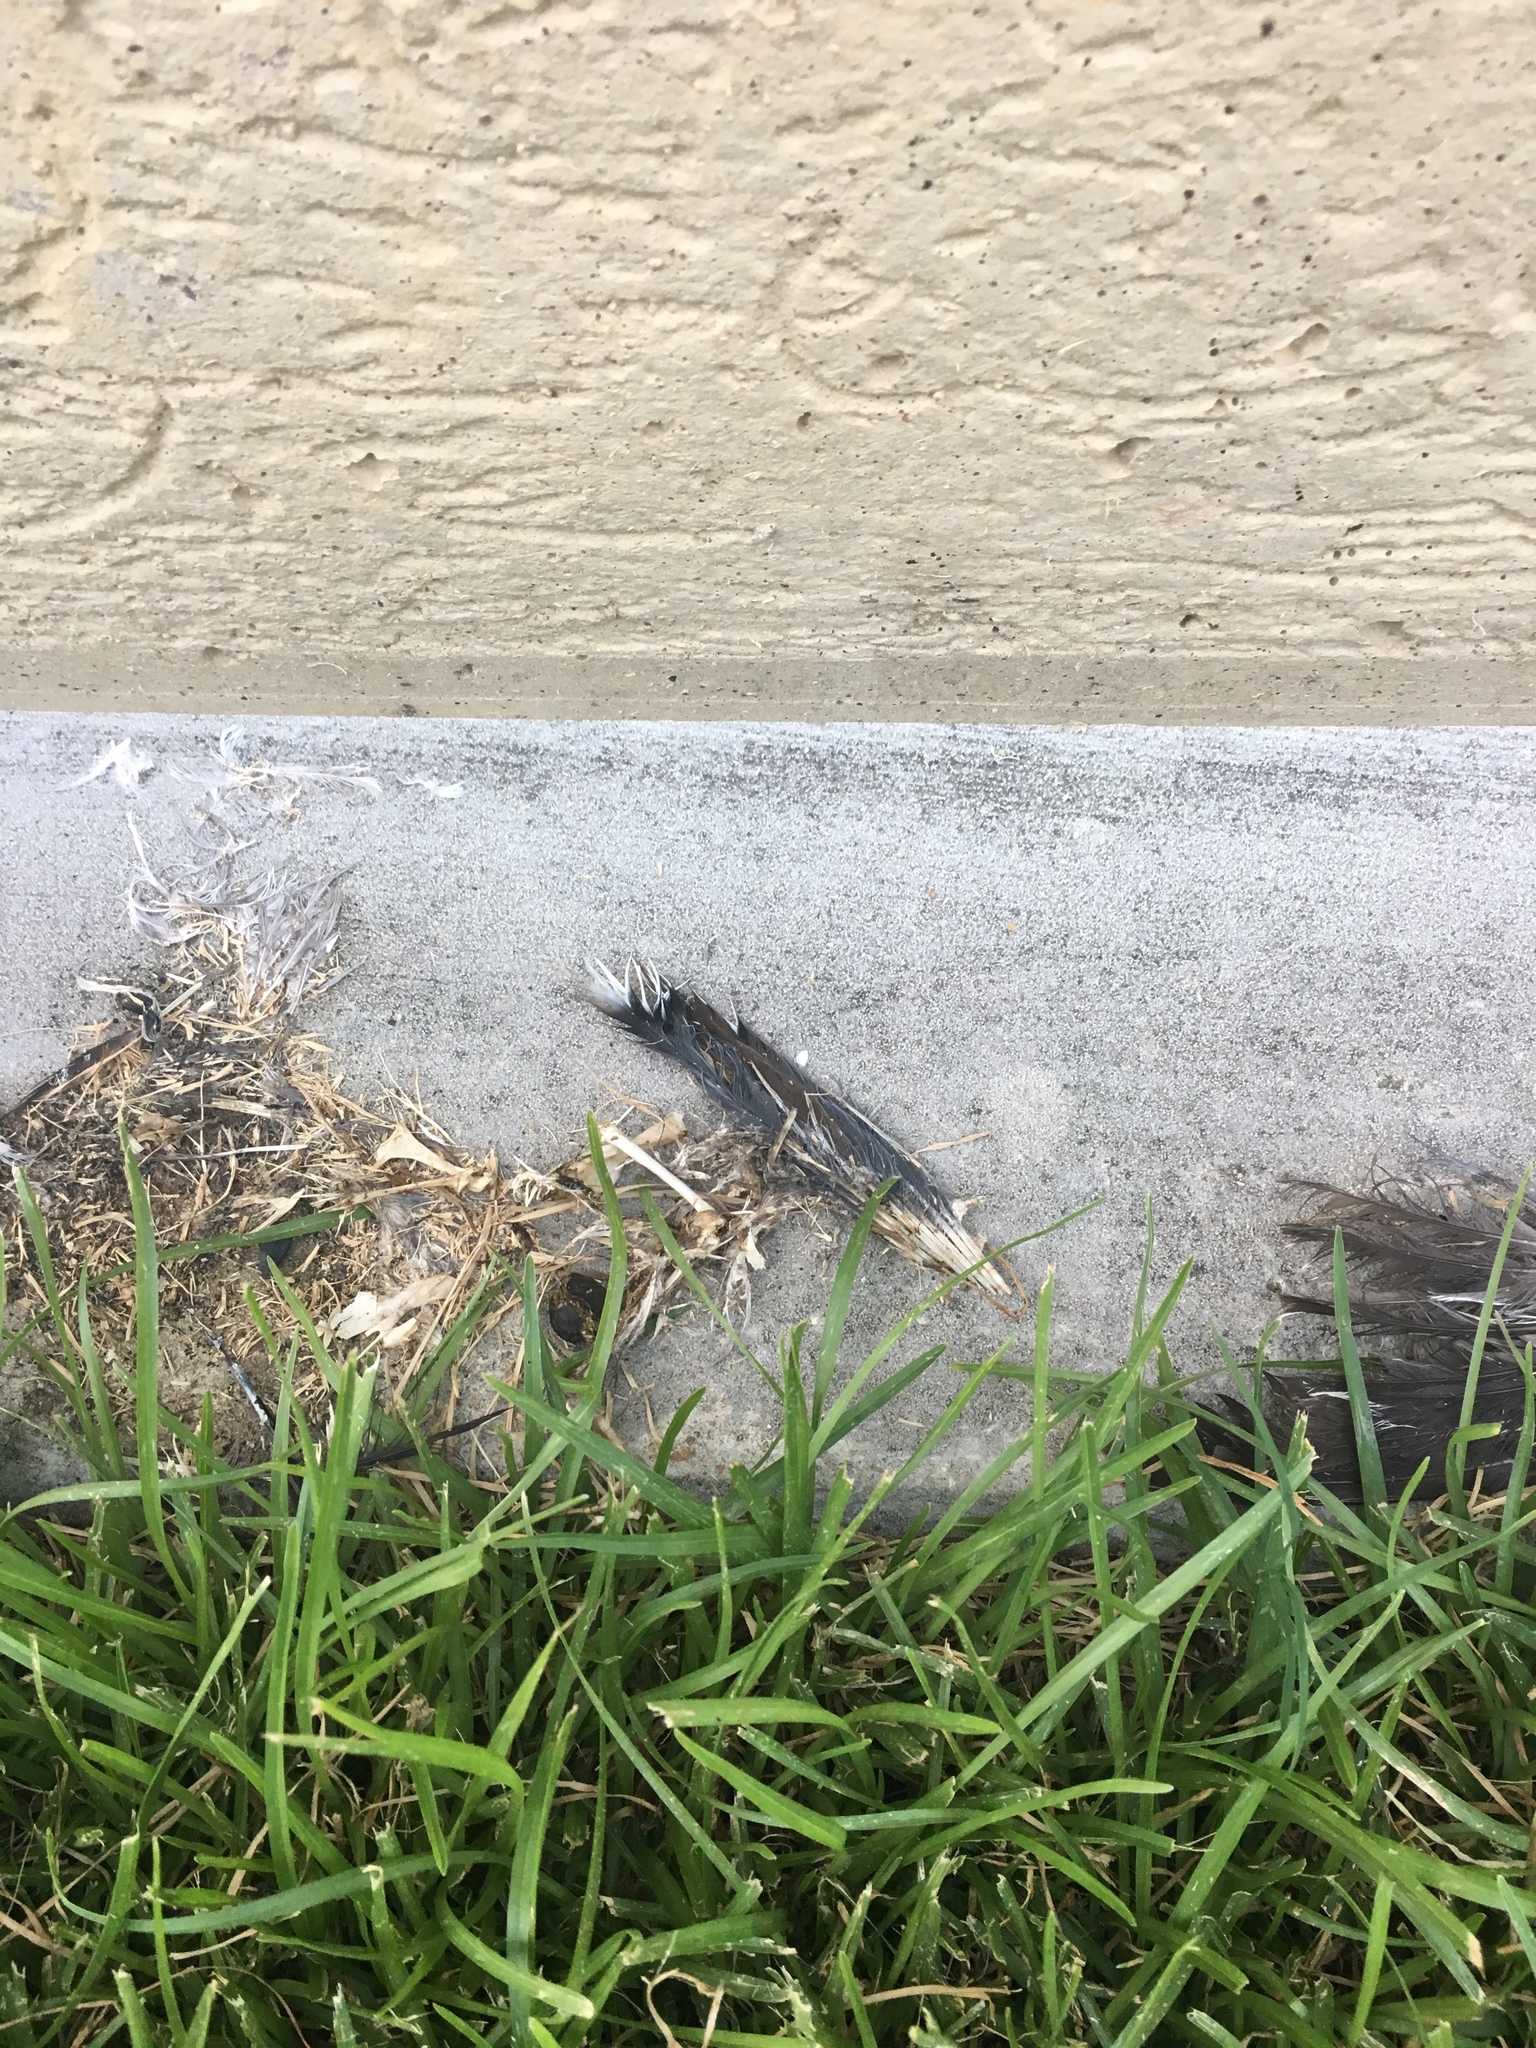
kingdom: Animalia
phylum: Chordata
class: Aves
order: Columbiformes
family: Columbidae
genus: Zenaida
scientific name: Zenaida macroura
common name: Mourning dove
